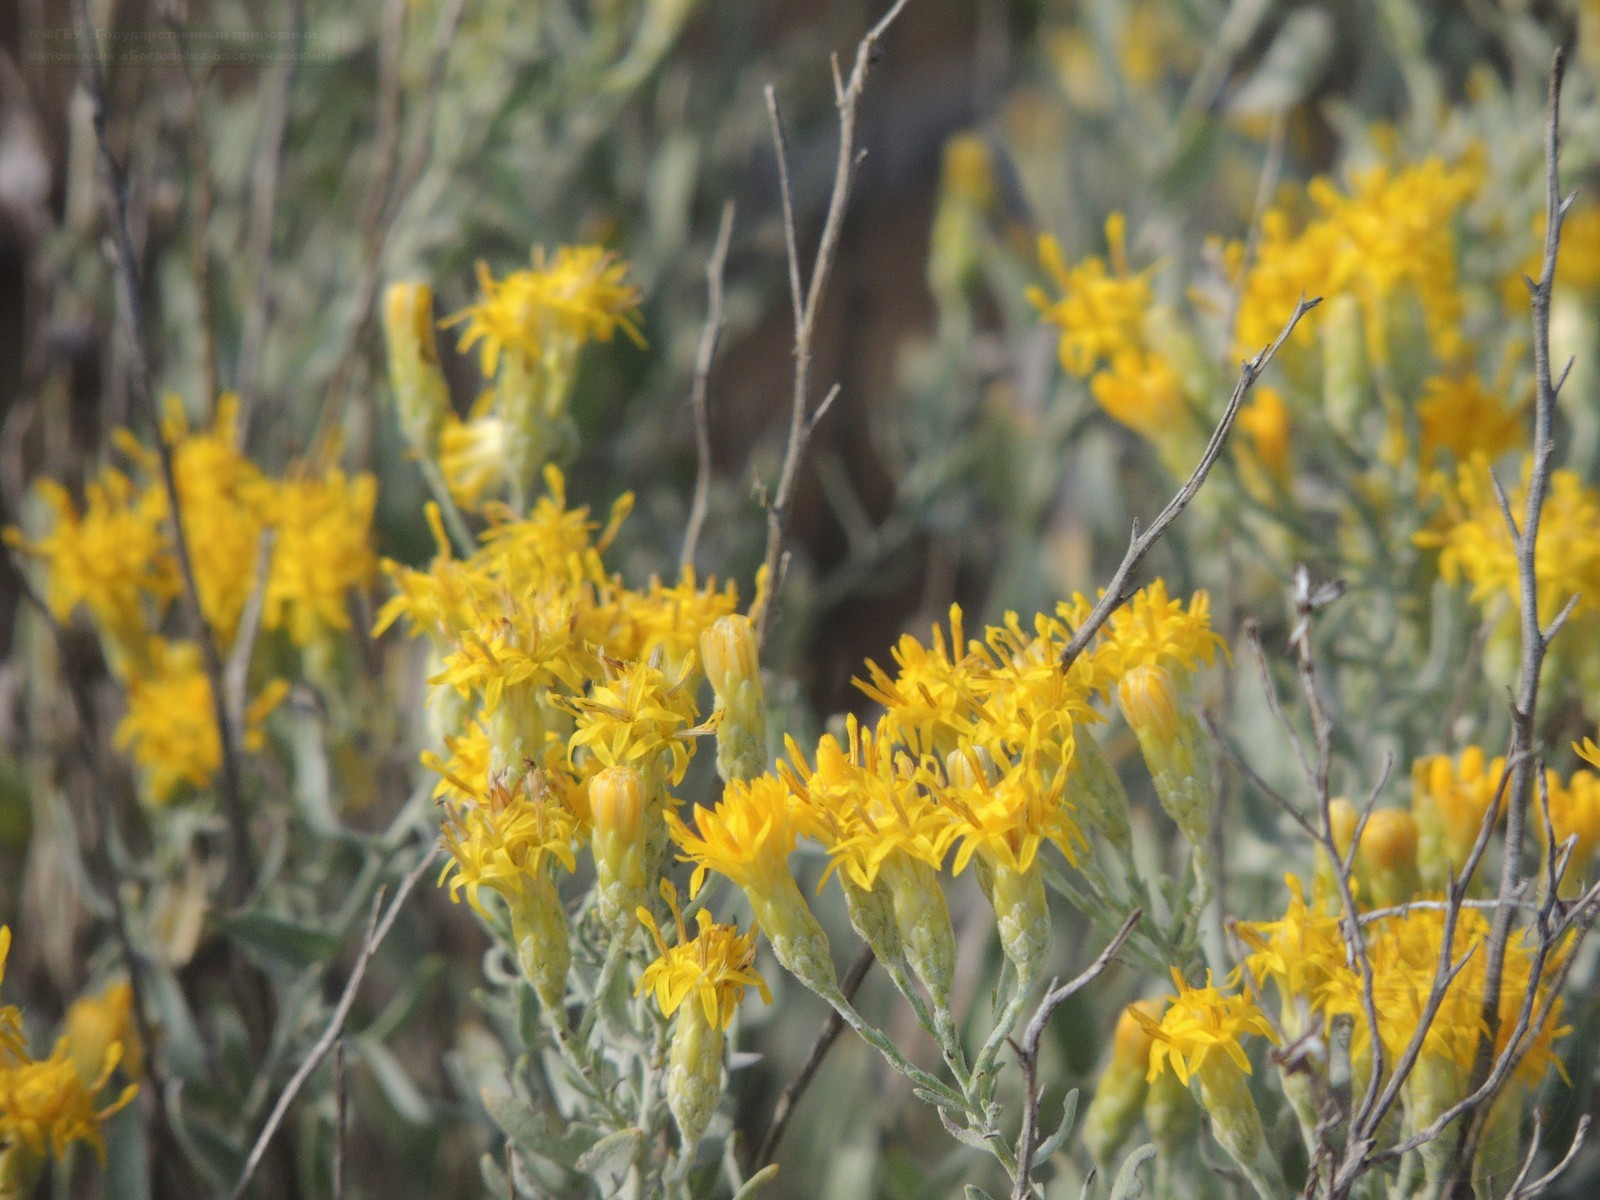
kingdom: Plantae
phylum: Tracheophyta
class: Magnoliopsida
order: Asterales
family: Asteraceae
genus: Galatella
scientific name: Galatella villosa
